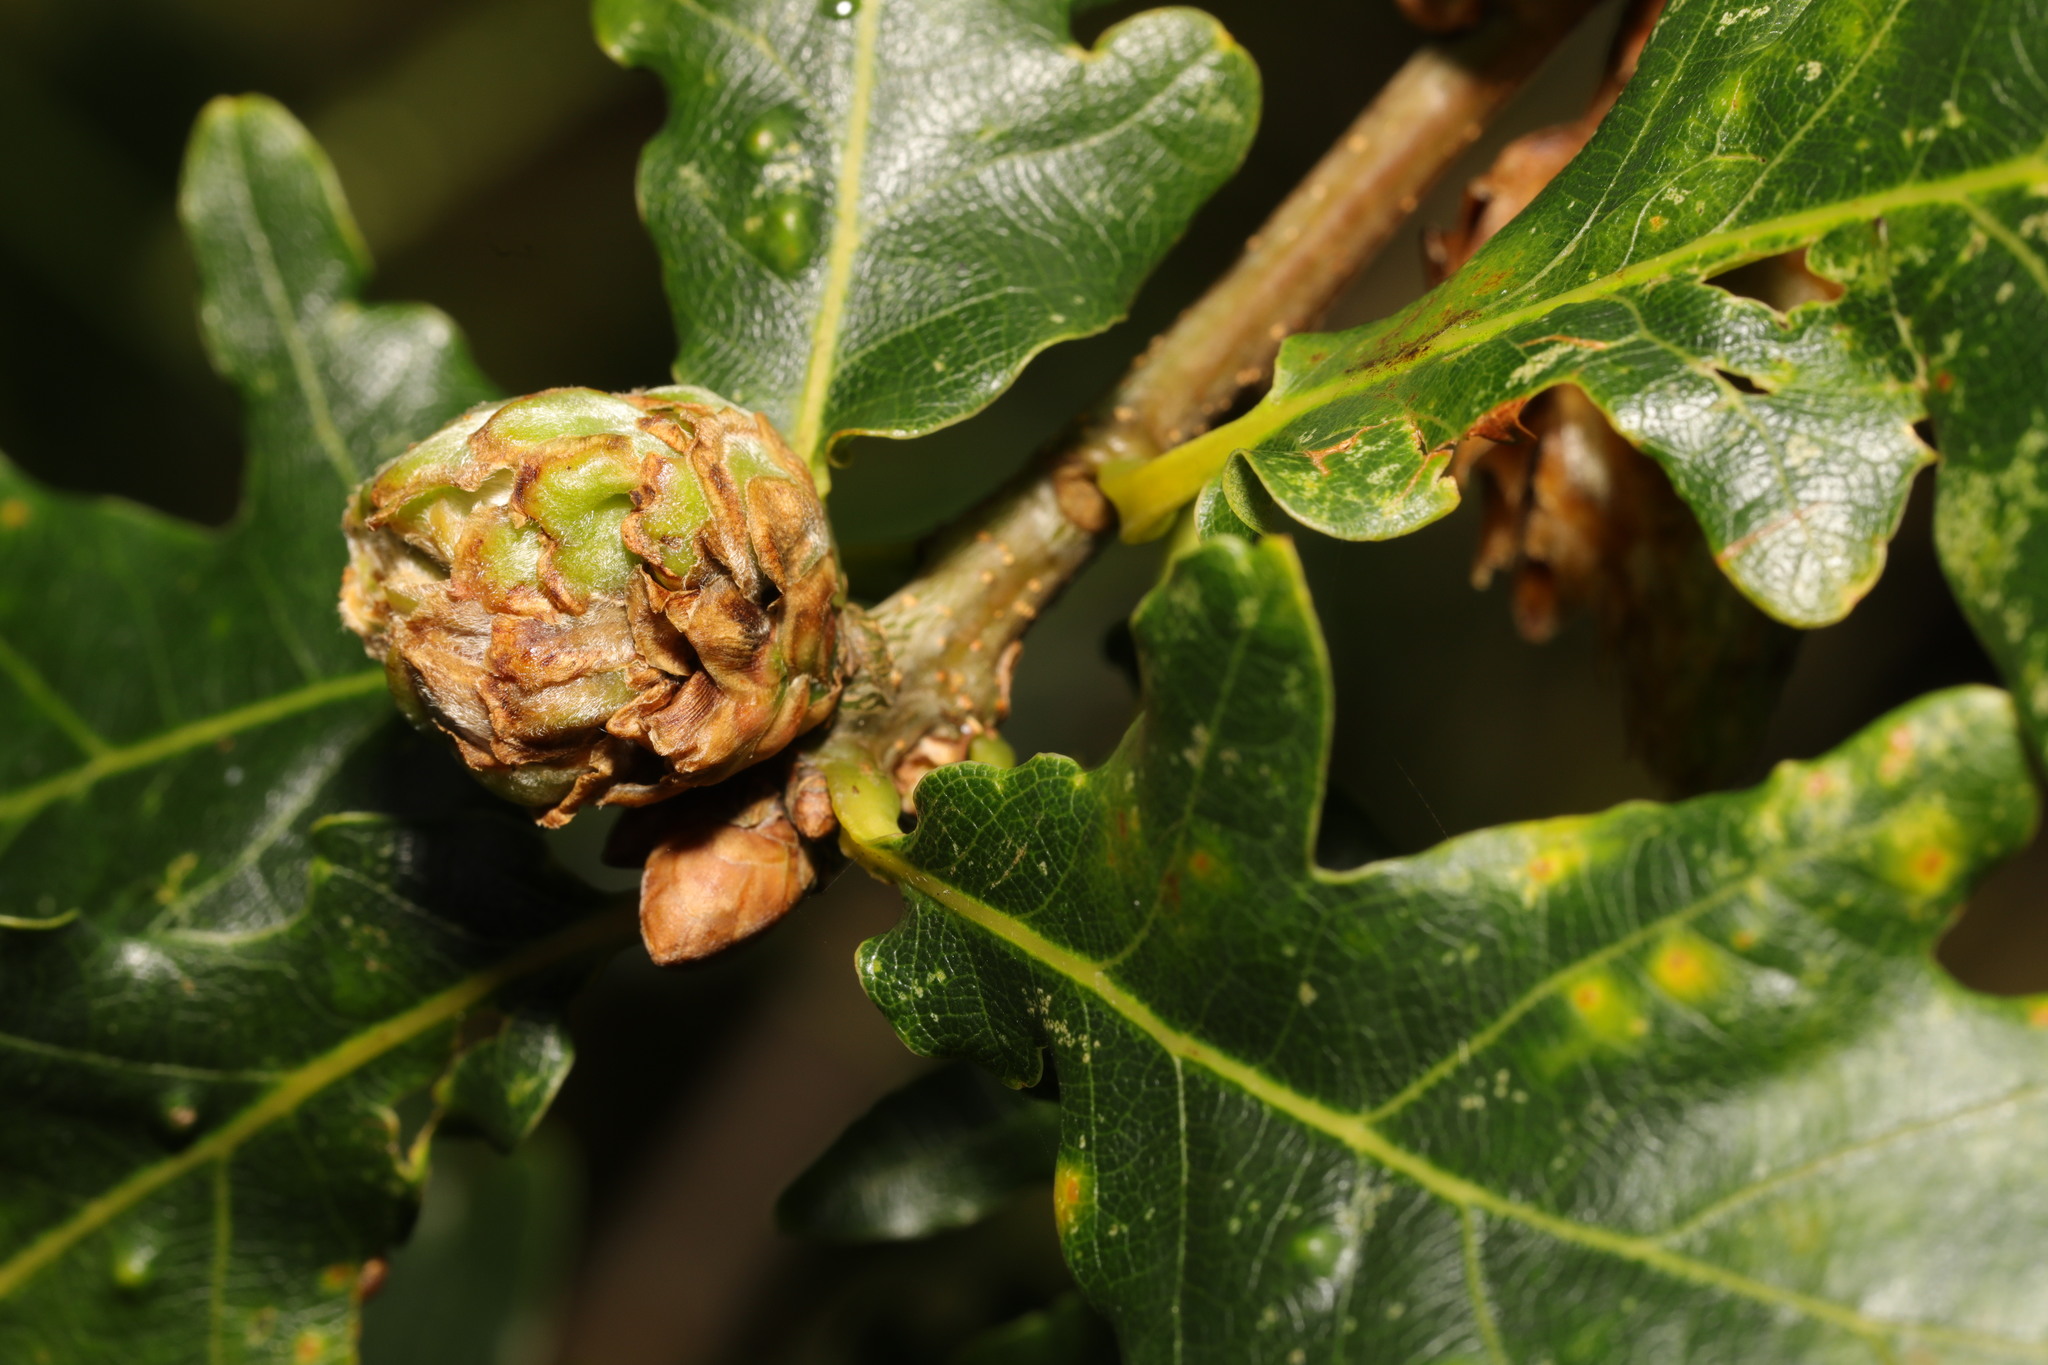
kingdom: Animalia
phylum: Arthropoda
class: Insecta
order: Hymenoptera
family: Cynipidae
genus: Andricus
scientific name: Andricus foecundatrix
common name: Artichoke gall
